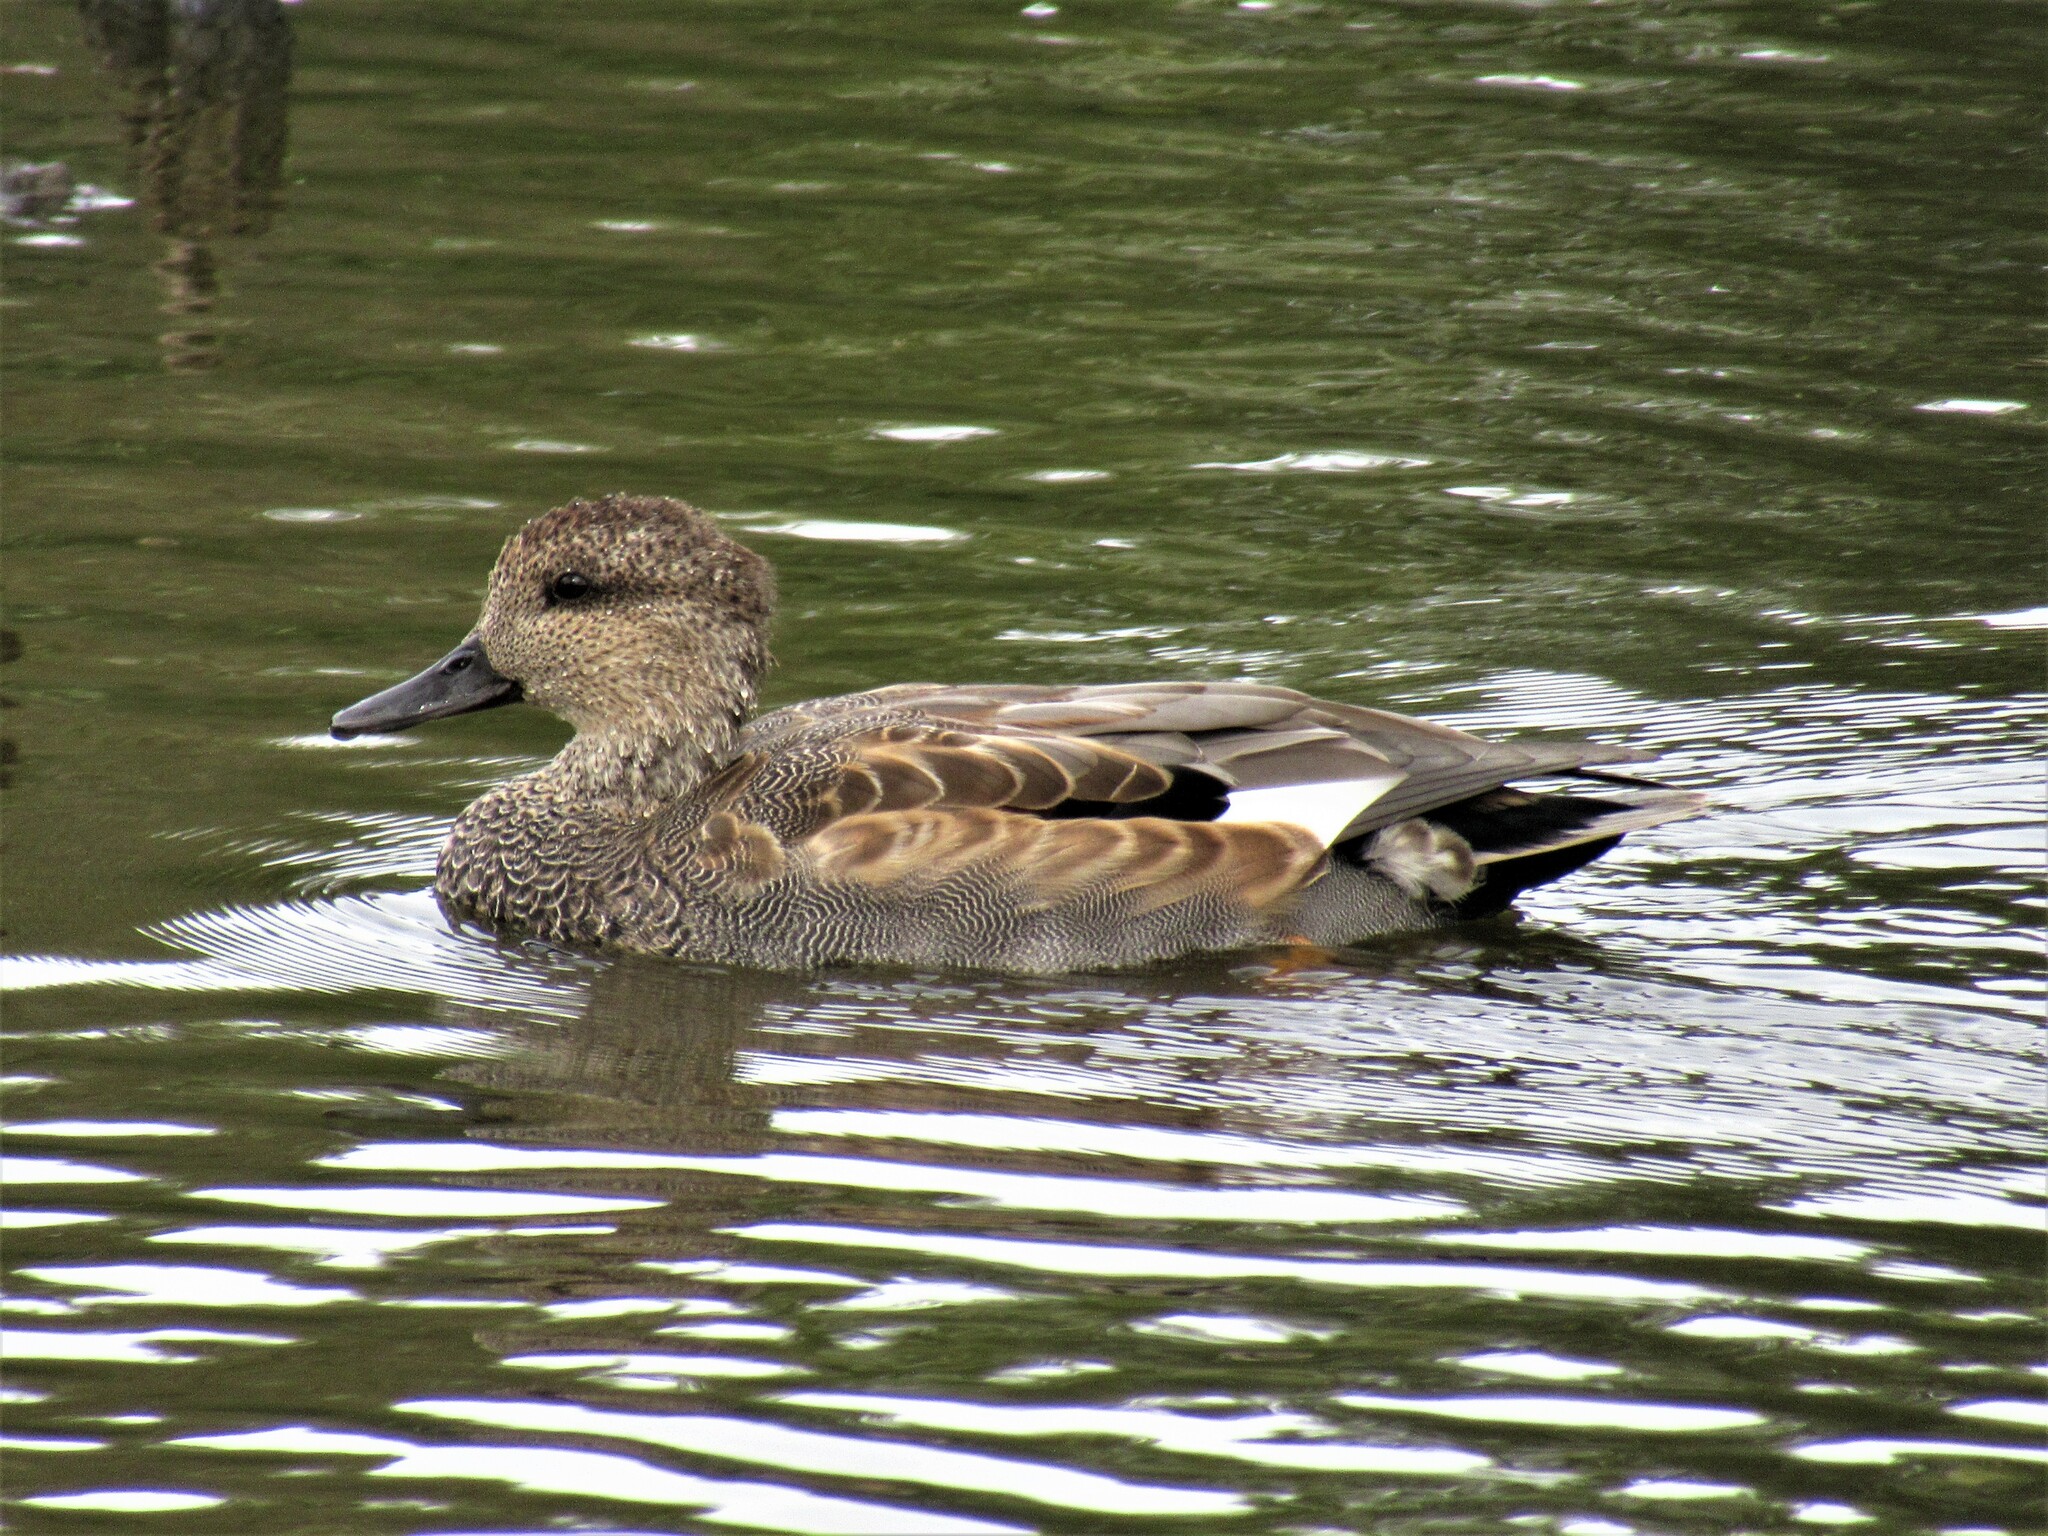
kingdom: Animalia
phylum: Chordata
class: Aves
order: Anseriformes
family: Anatidae
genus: Mareca
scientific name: Mareca strepera
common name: Gadwall
